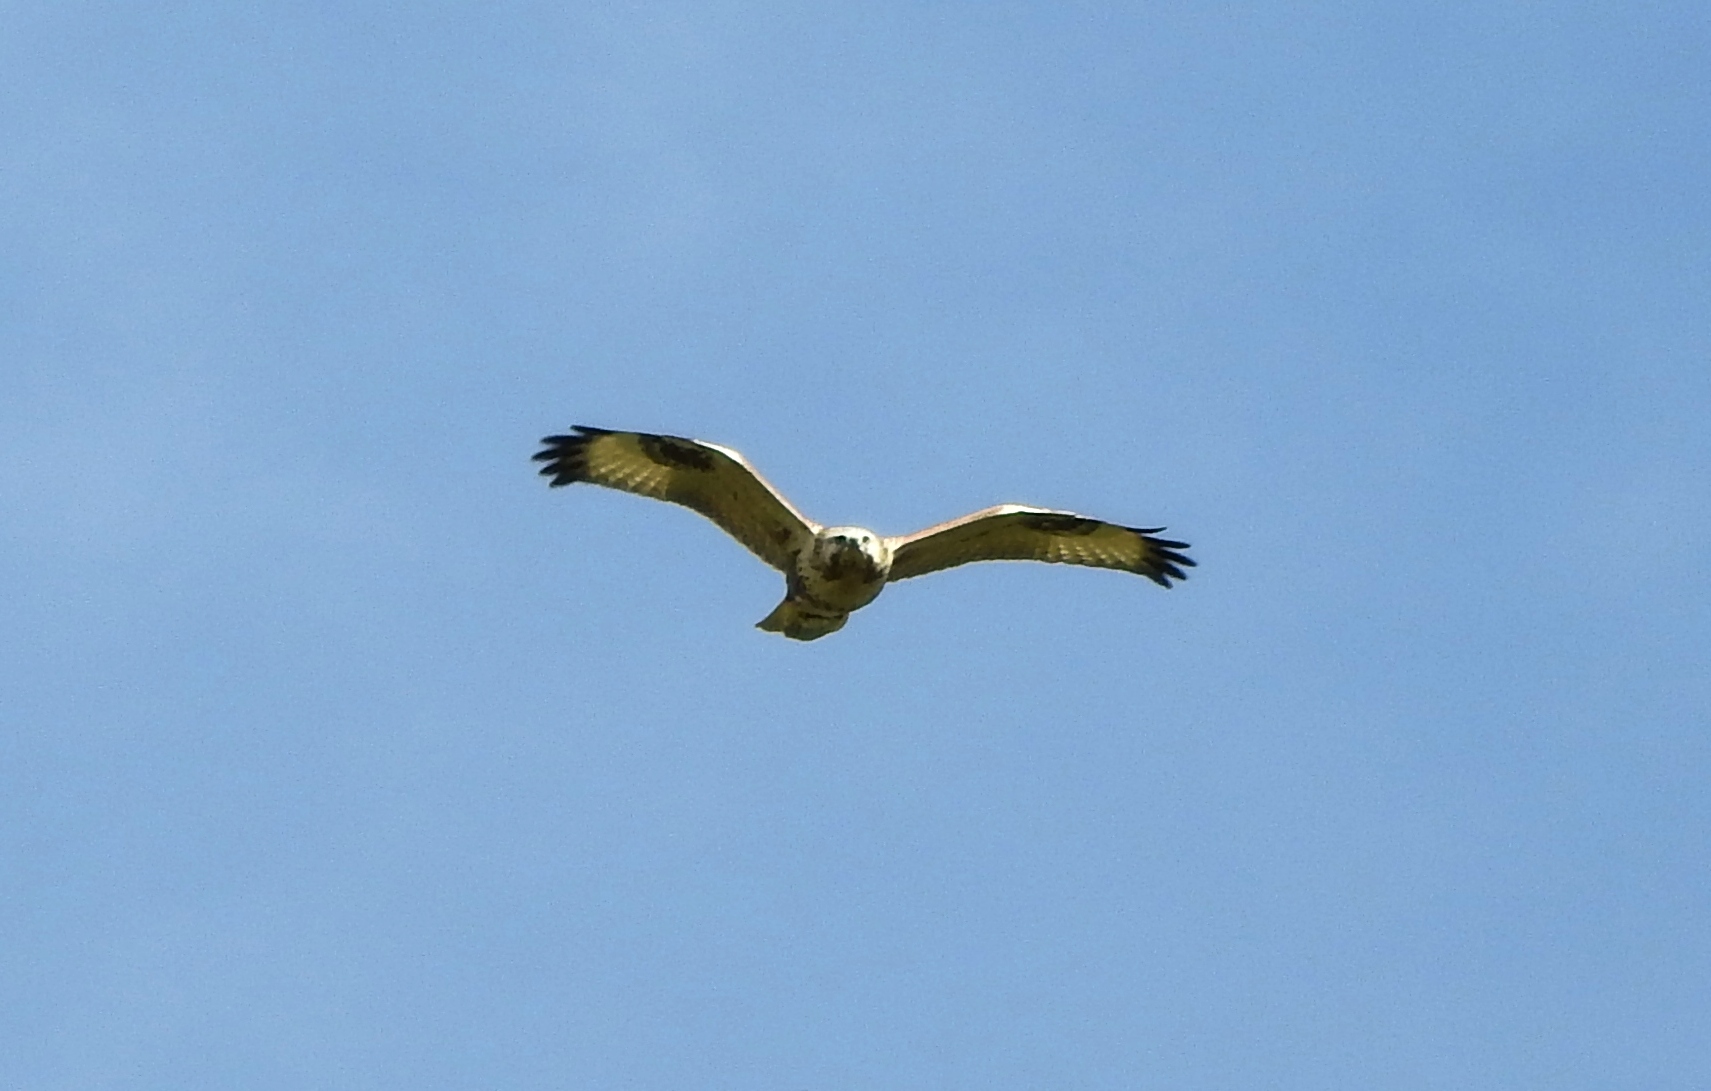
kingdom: Animalia
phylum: Chordata
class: Aves
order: Accipitriformes
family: Accipitridae
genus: Buteo
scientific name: Buteo hemilasius
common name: Upland buzzard
